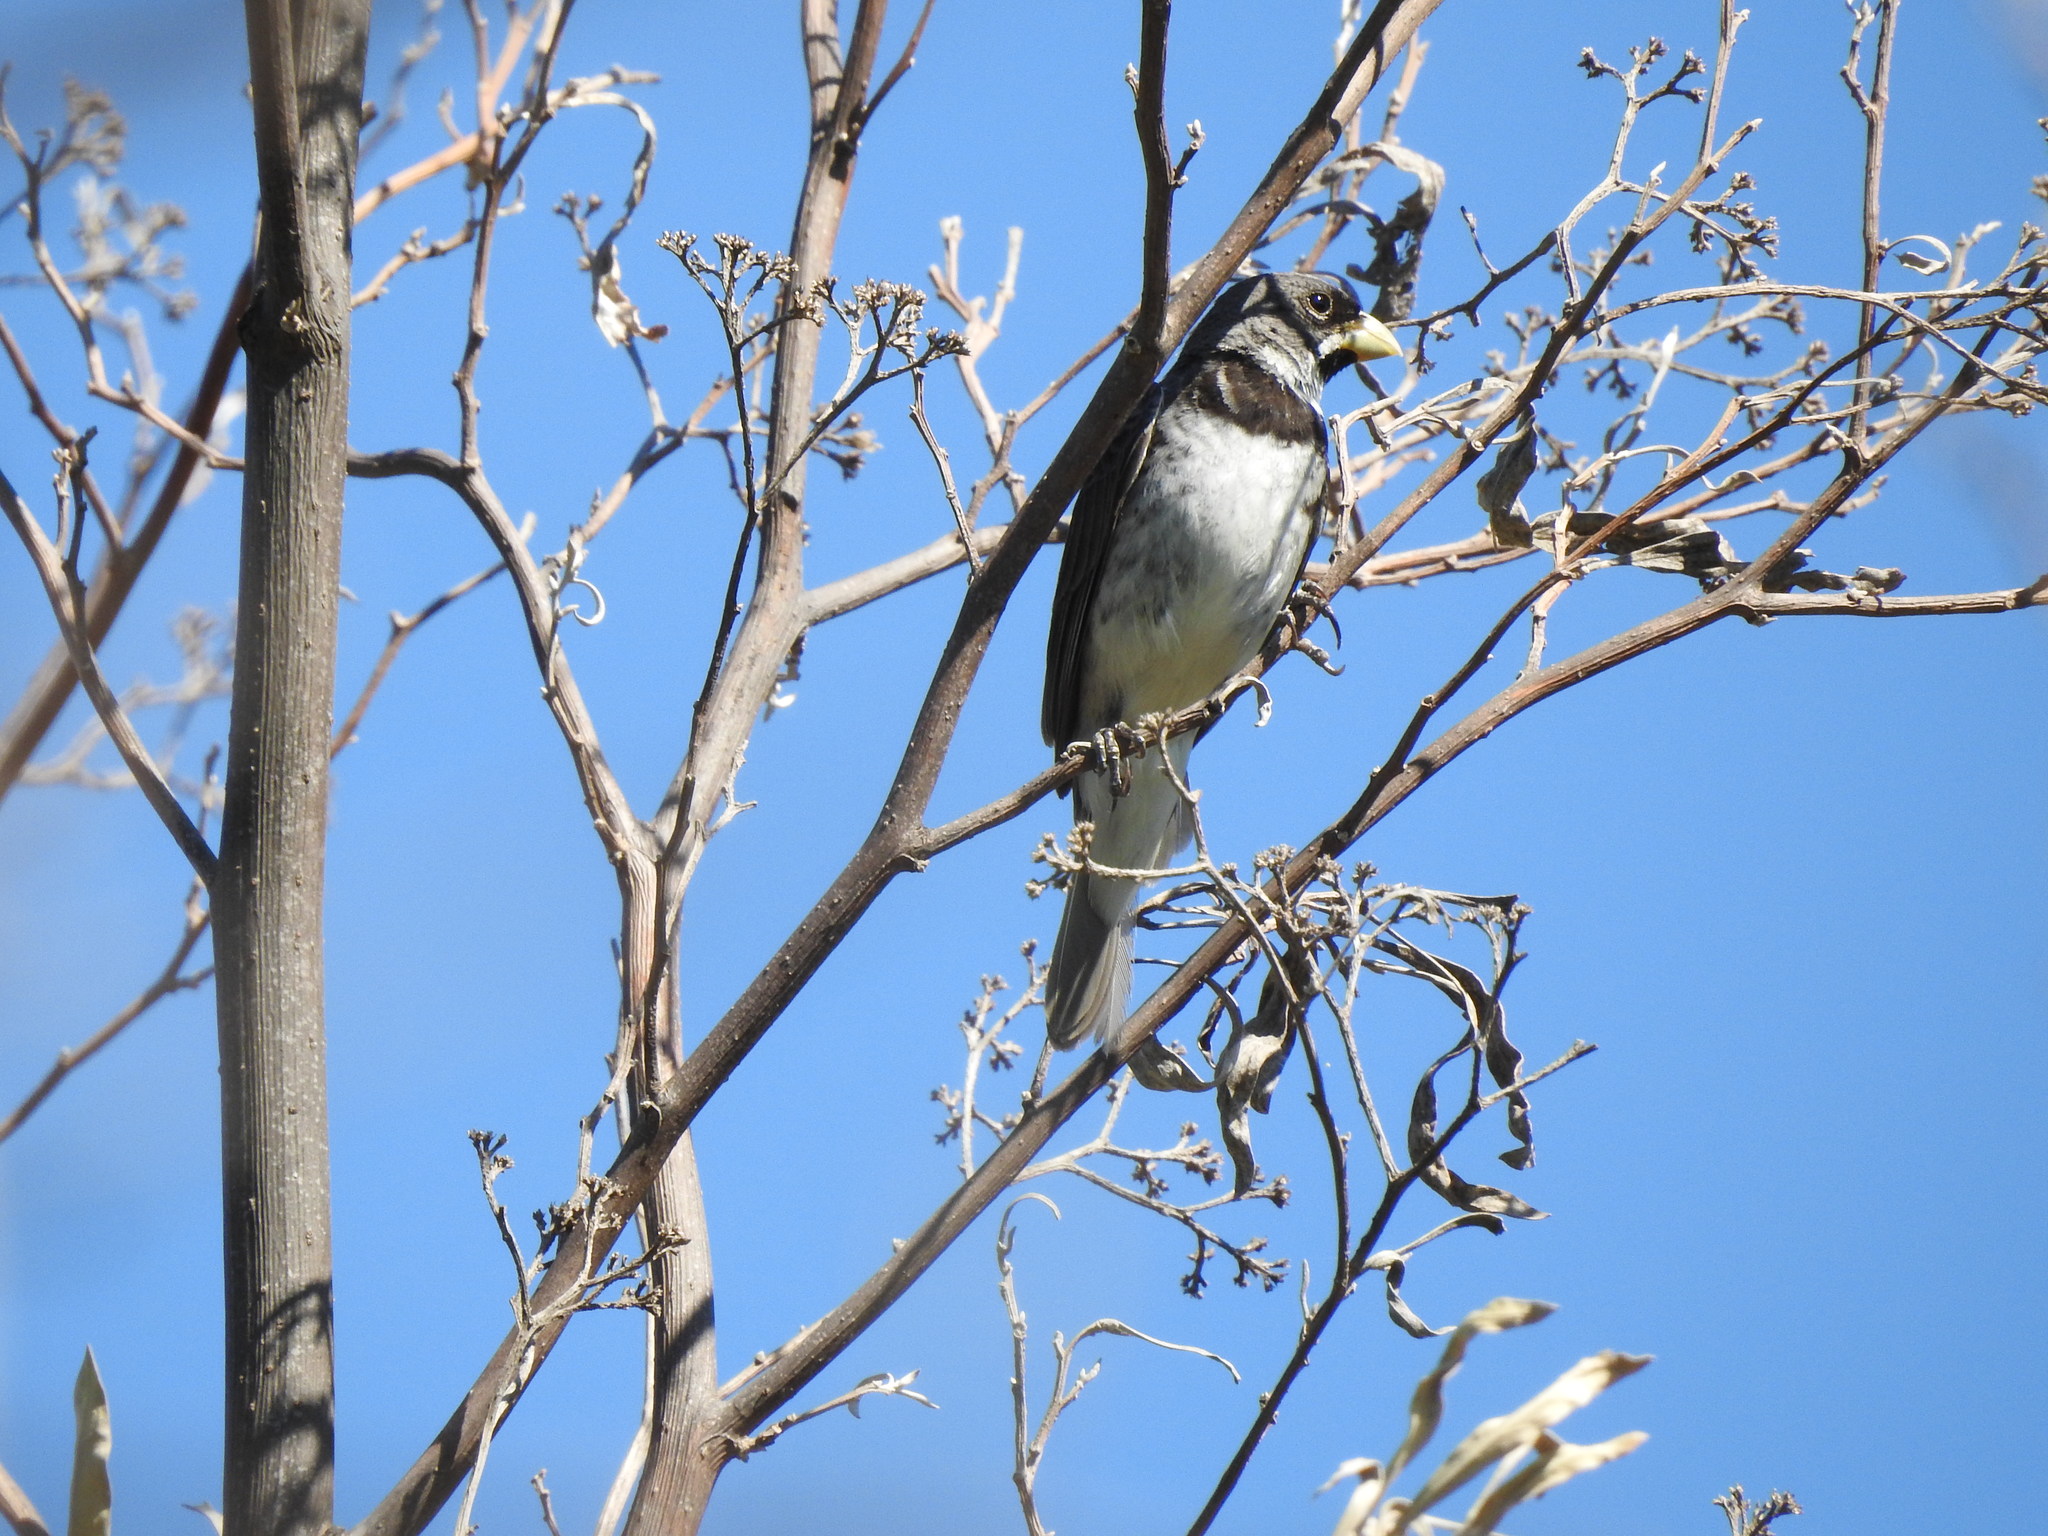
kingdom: Animalia
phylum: Chordata
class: Aves
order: Passeriformes
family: Thraupidae
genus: Sporophila
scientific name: Sporophila caerulescens
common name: Double-collared seedeater
